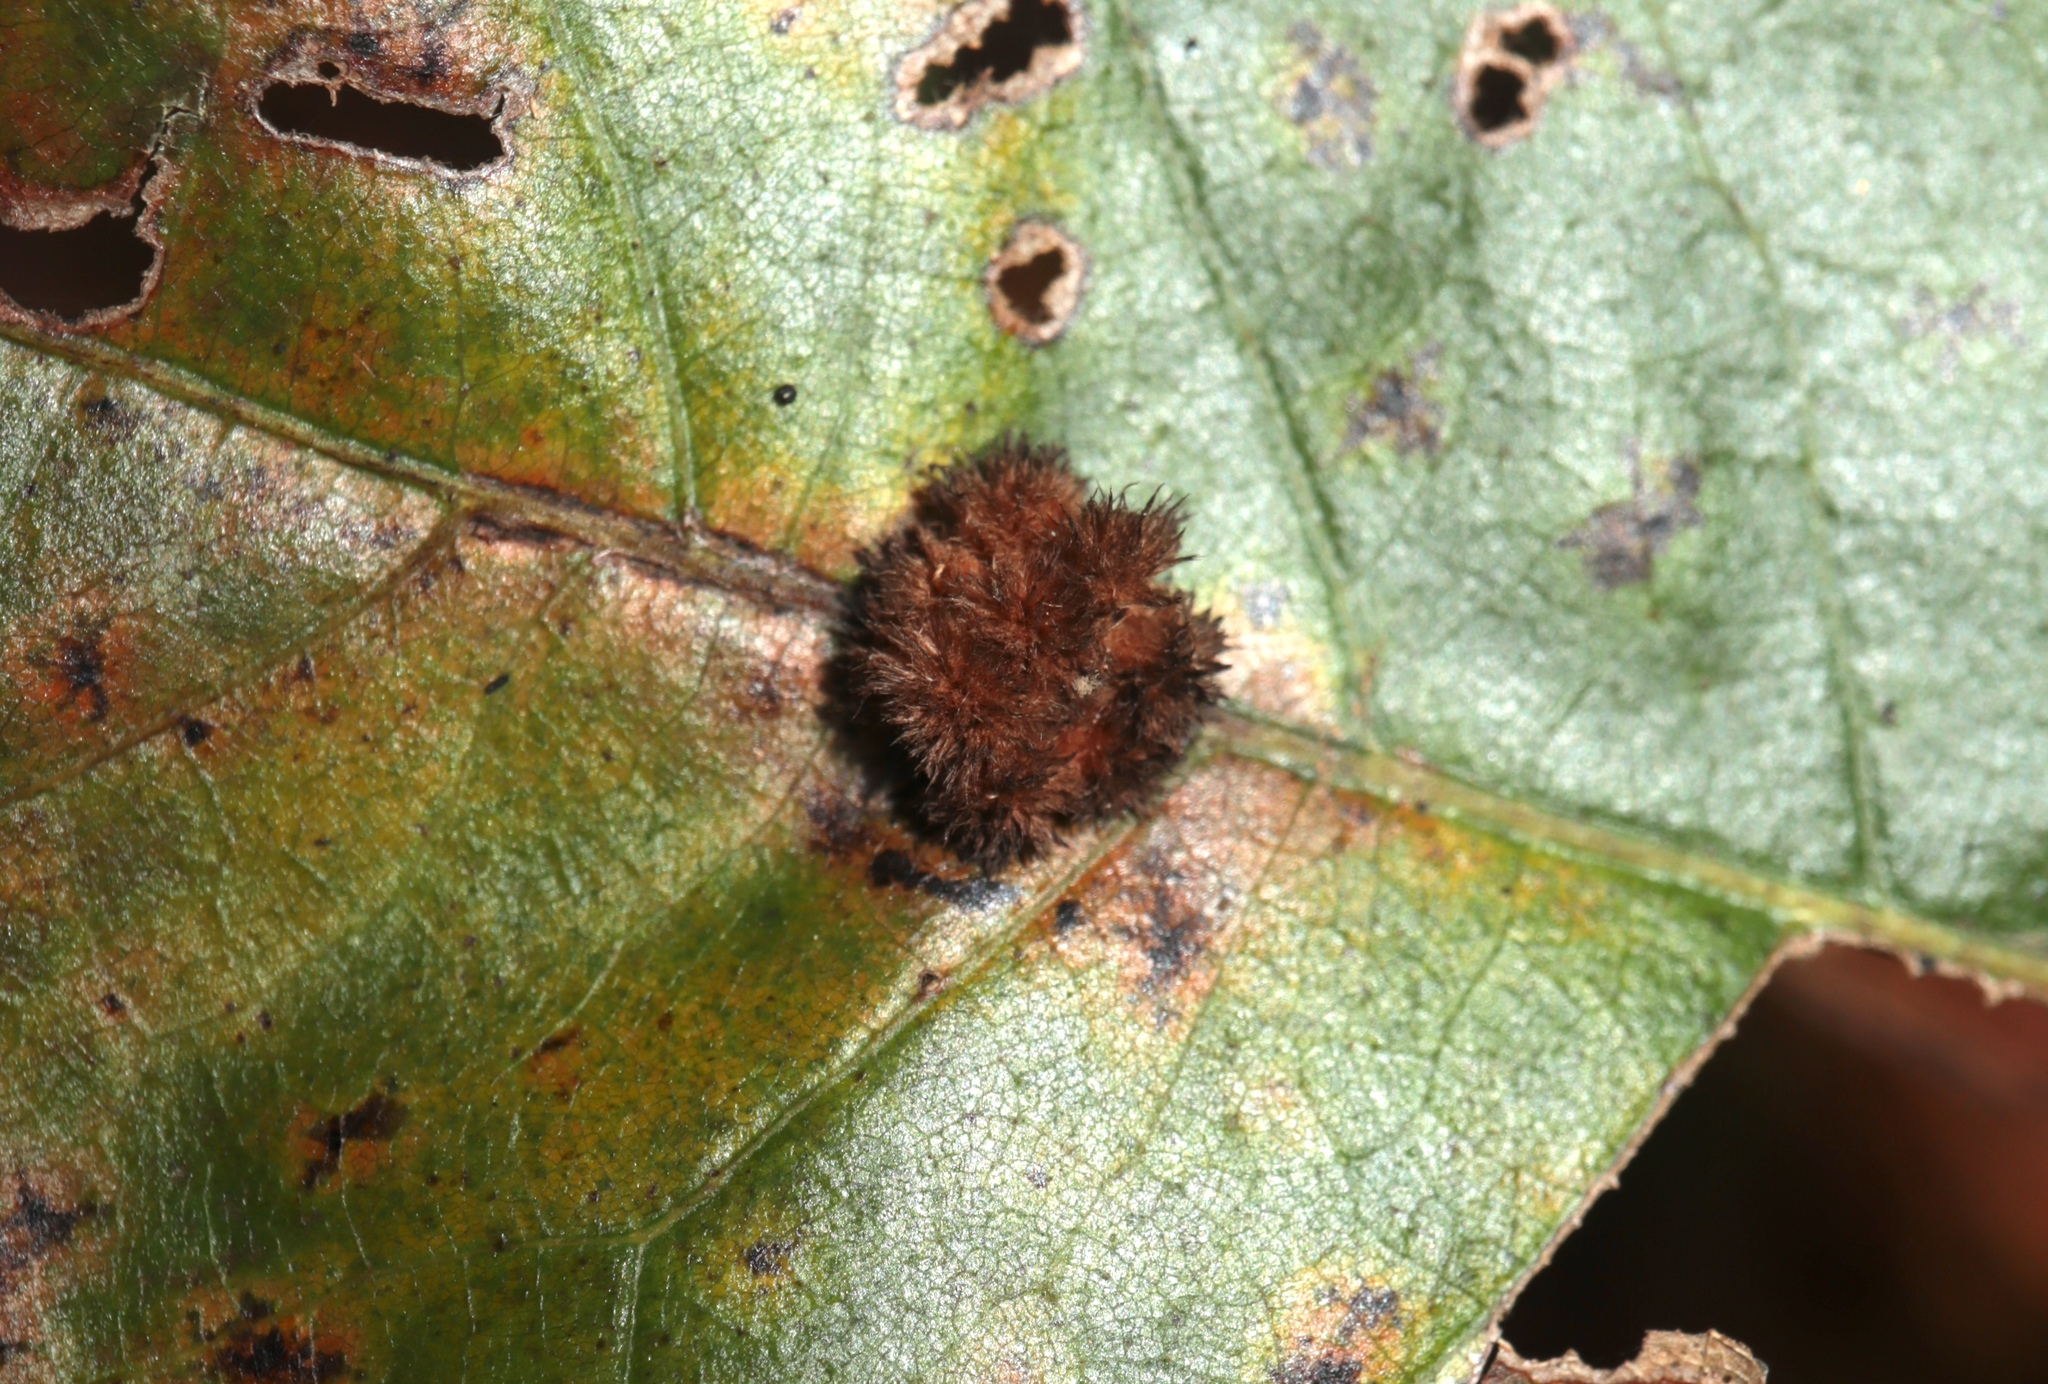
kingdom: Animalia
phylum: Arthropoda
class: Insecta
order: Hymenoptera
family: Cynipidae
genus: Callirhytis
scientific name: Callirhytis
